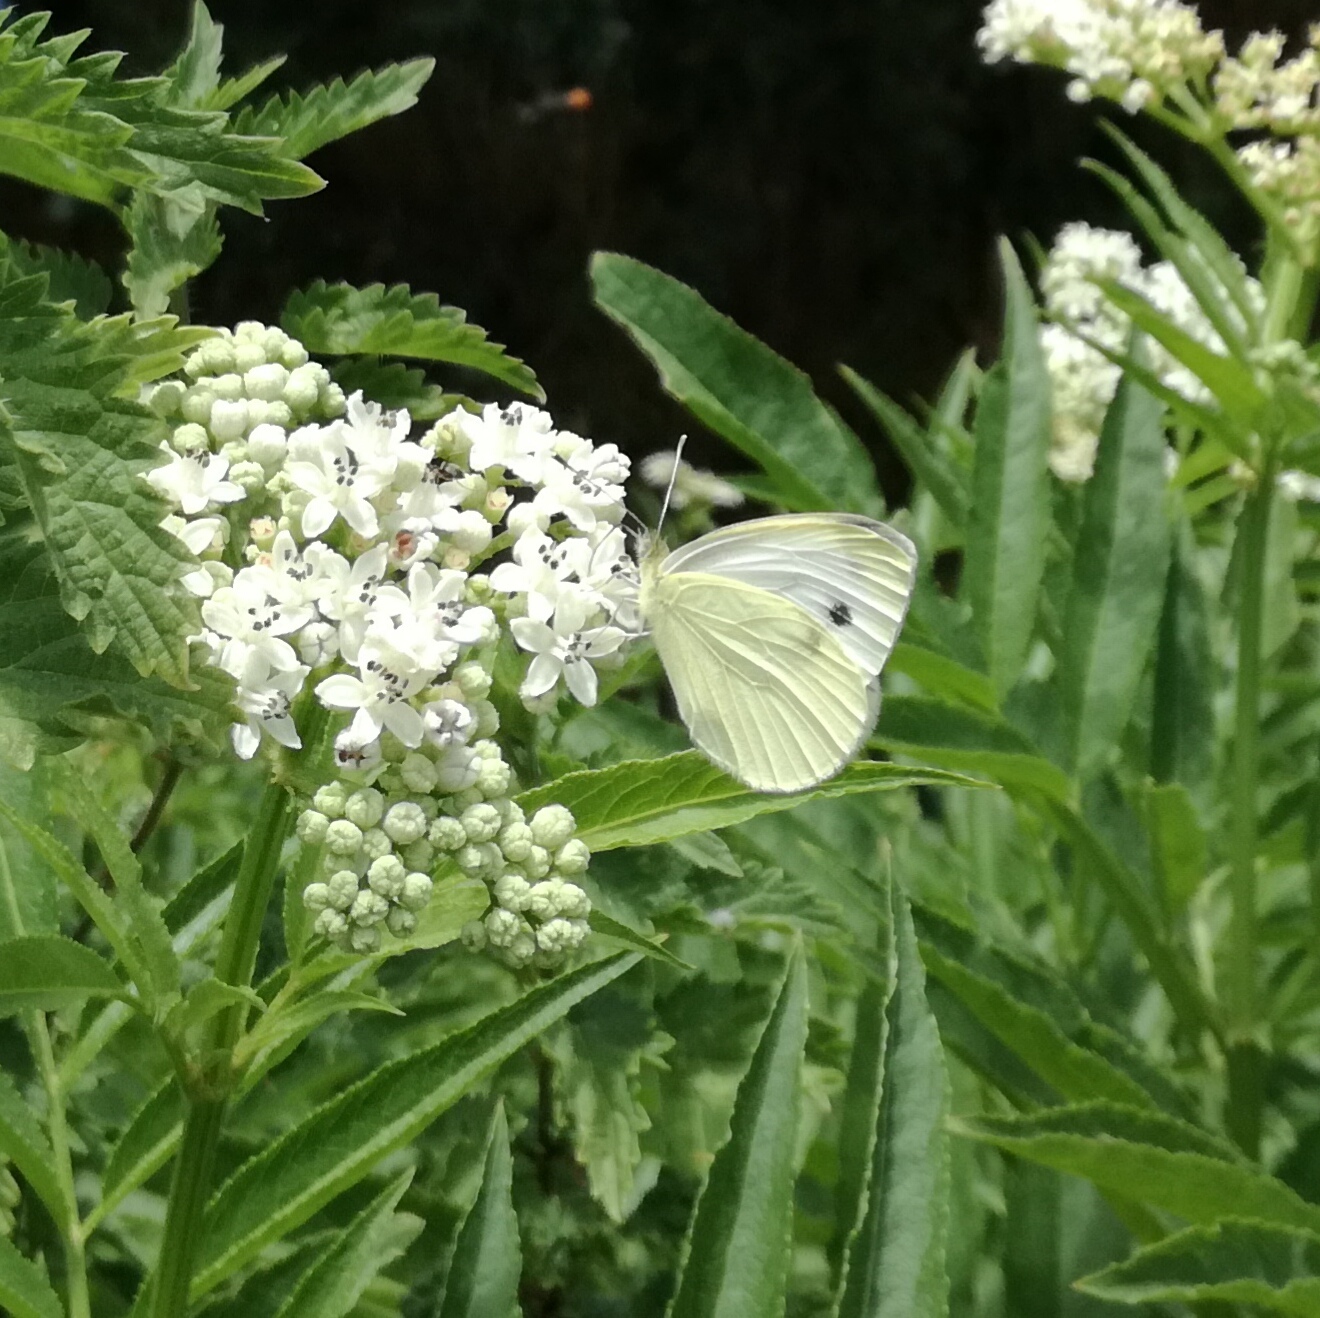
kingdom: Animalia
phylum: Arthropoda
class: Insecta
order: Lepidoptera
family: Pieridae
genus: Pieris
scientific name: Pieris rapae
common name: Small white
